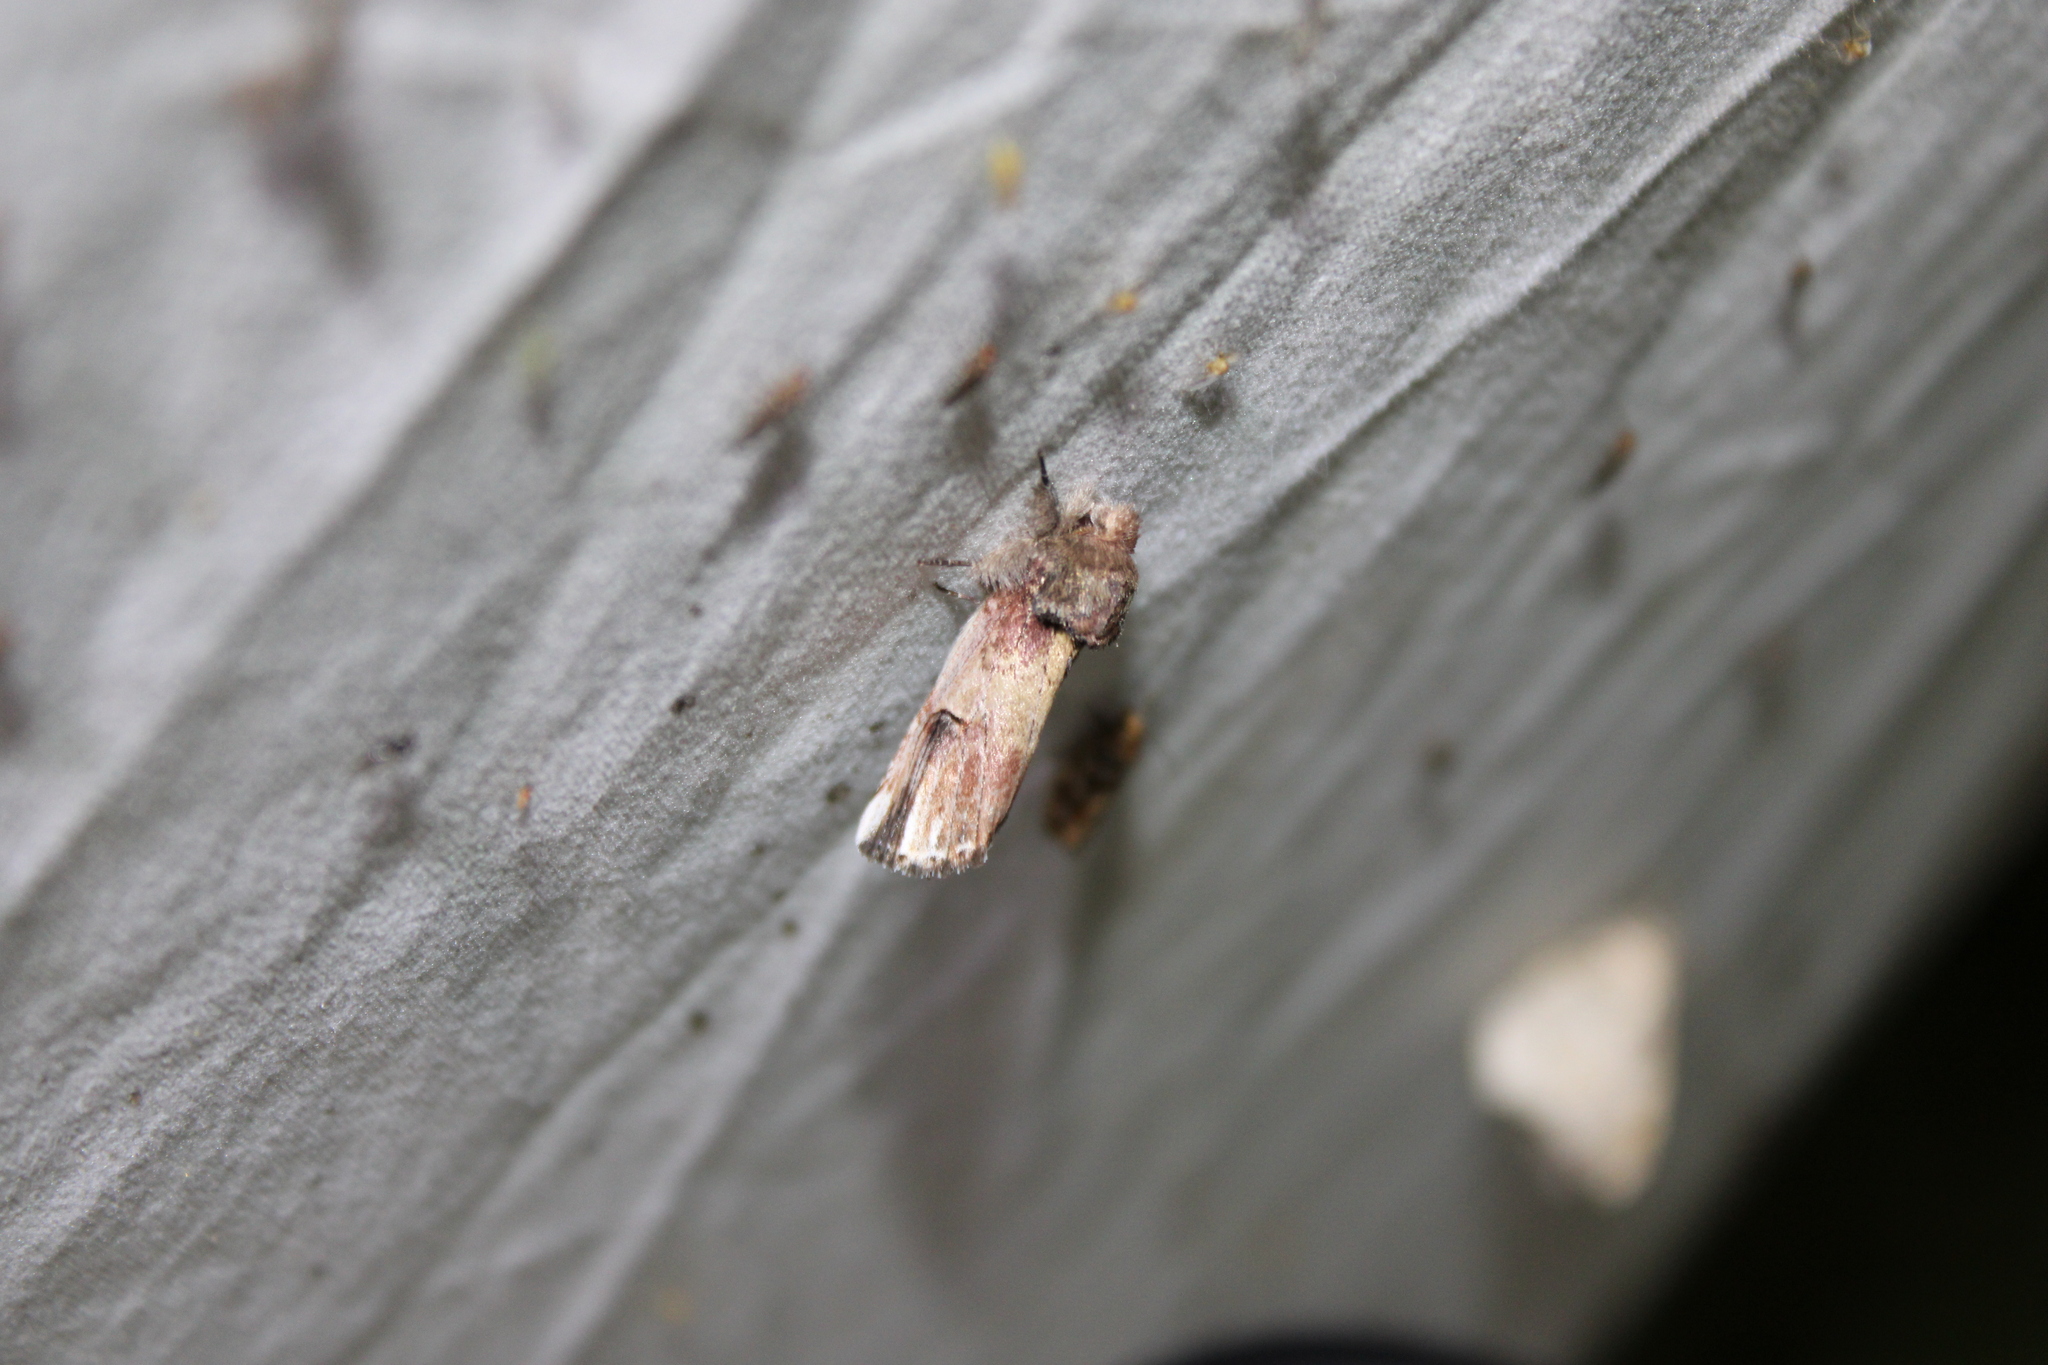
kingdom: Animalia
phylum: Arthropoda
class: Insecta
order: Lepidoptera
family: Notodontidae
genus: Schizura
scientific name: Schizura badia
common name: Chestnut schizura
